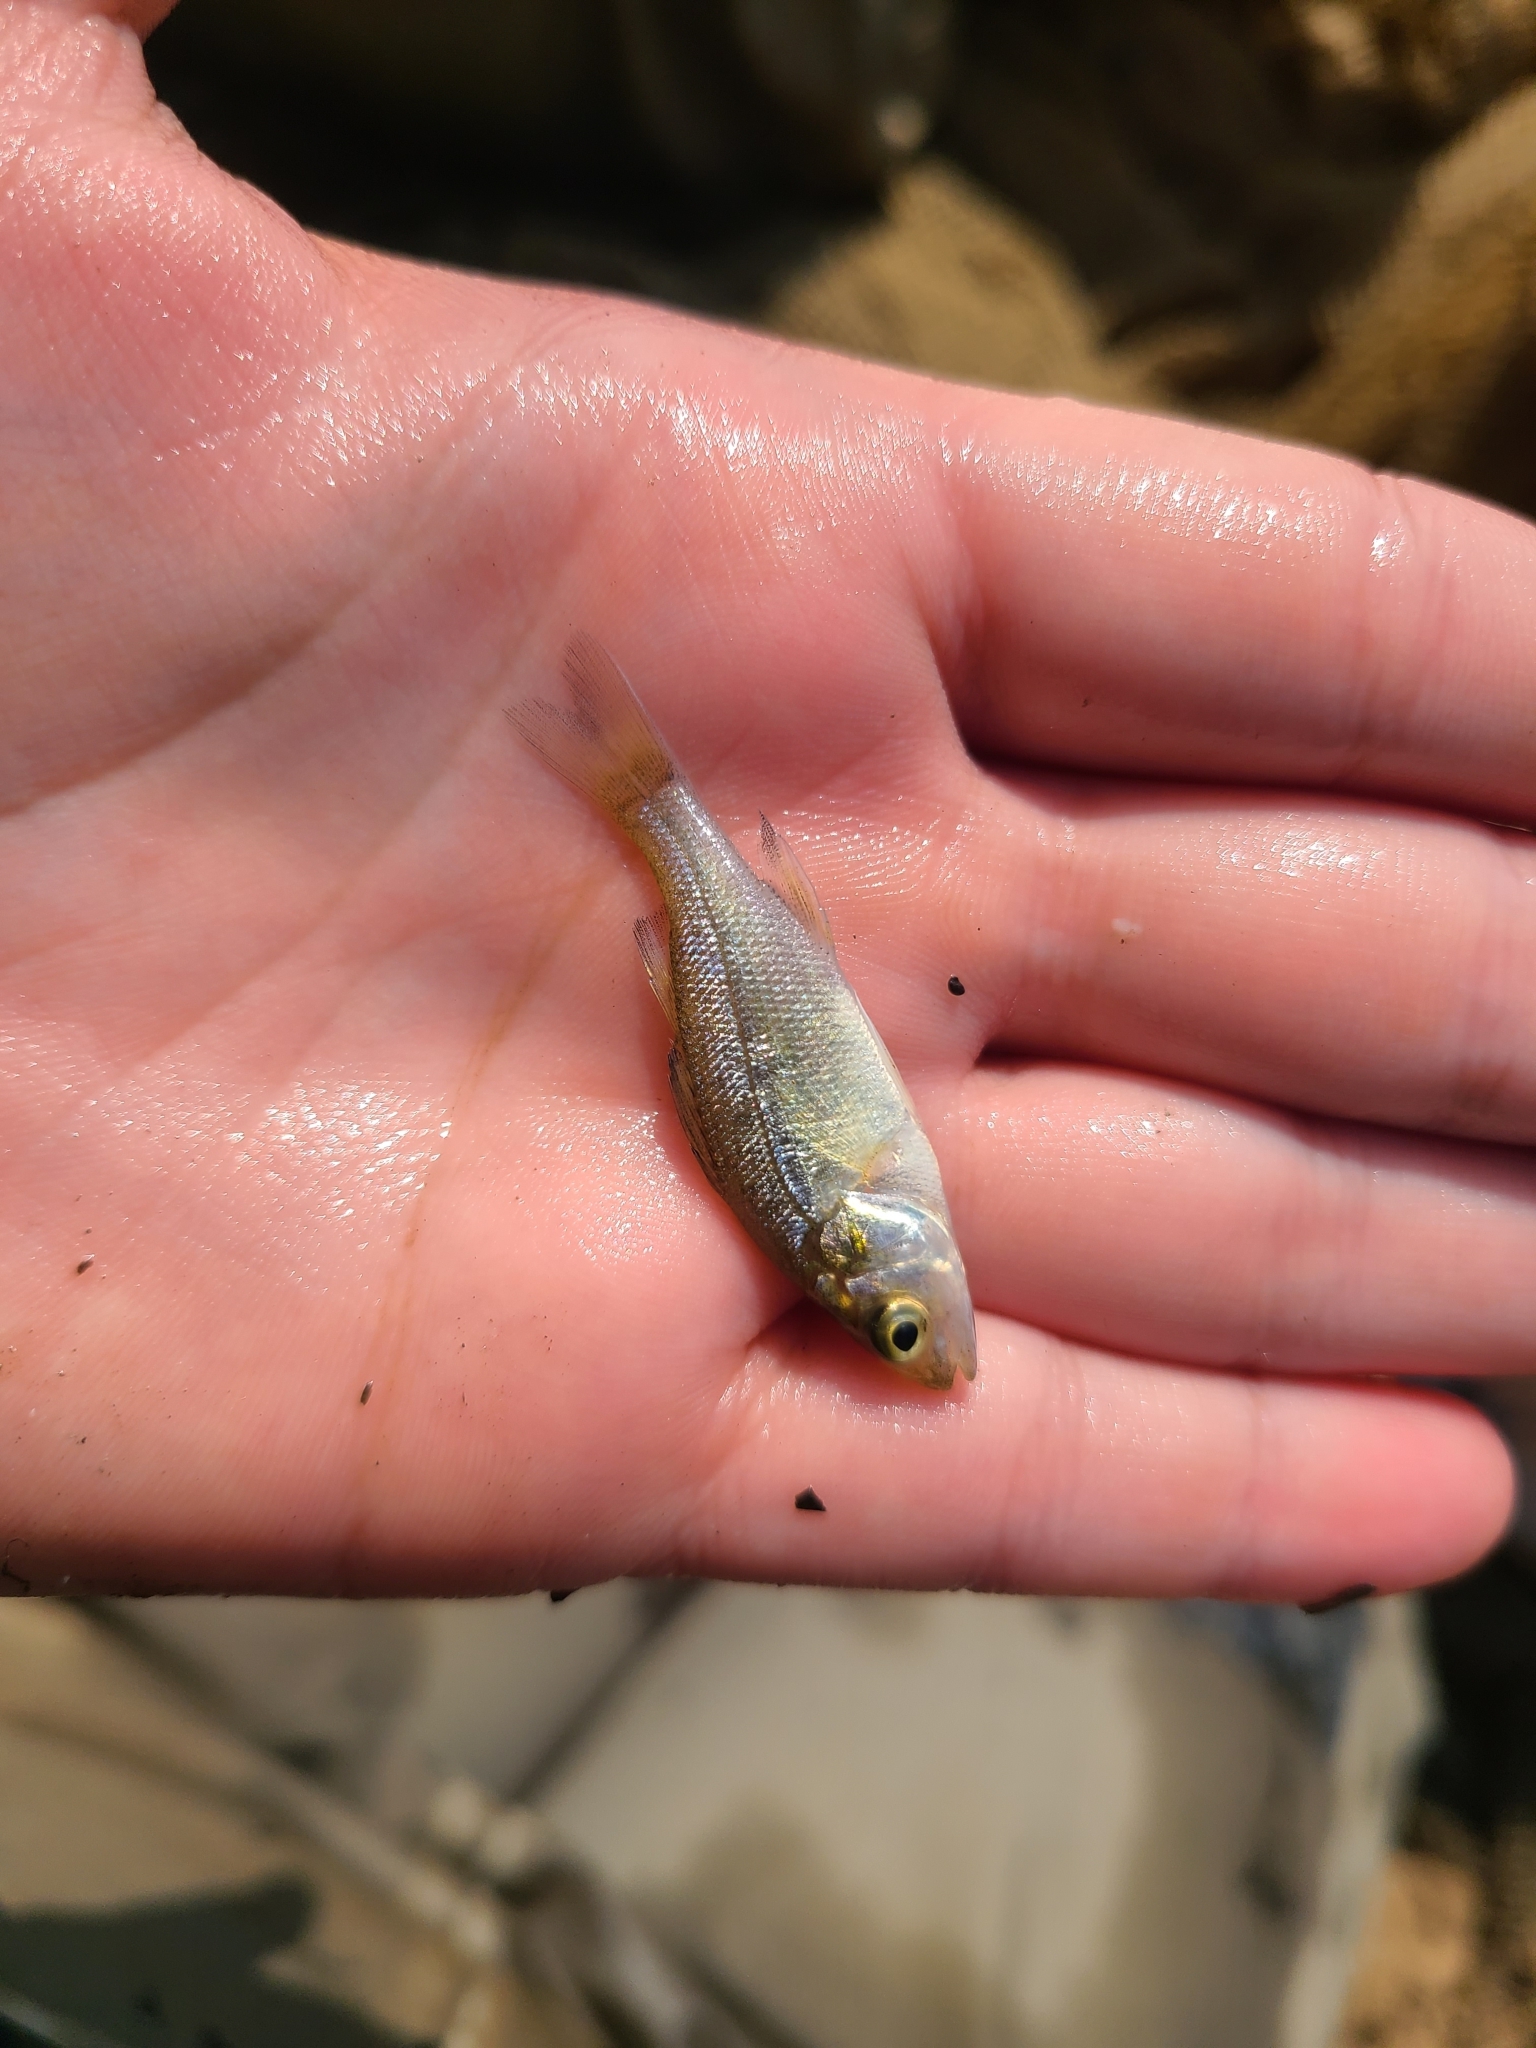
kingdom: Animalia
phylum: Chordata
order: Perciformes
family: Moronidae
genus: Morone
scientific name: Morone americana
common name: White perch
